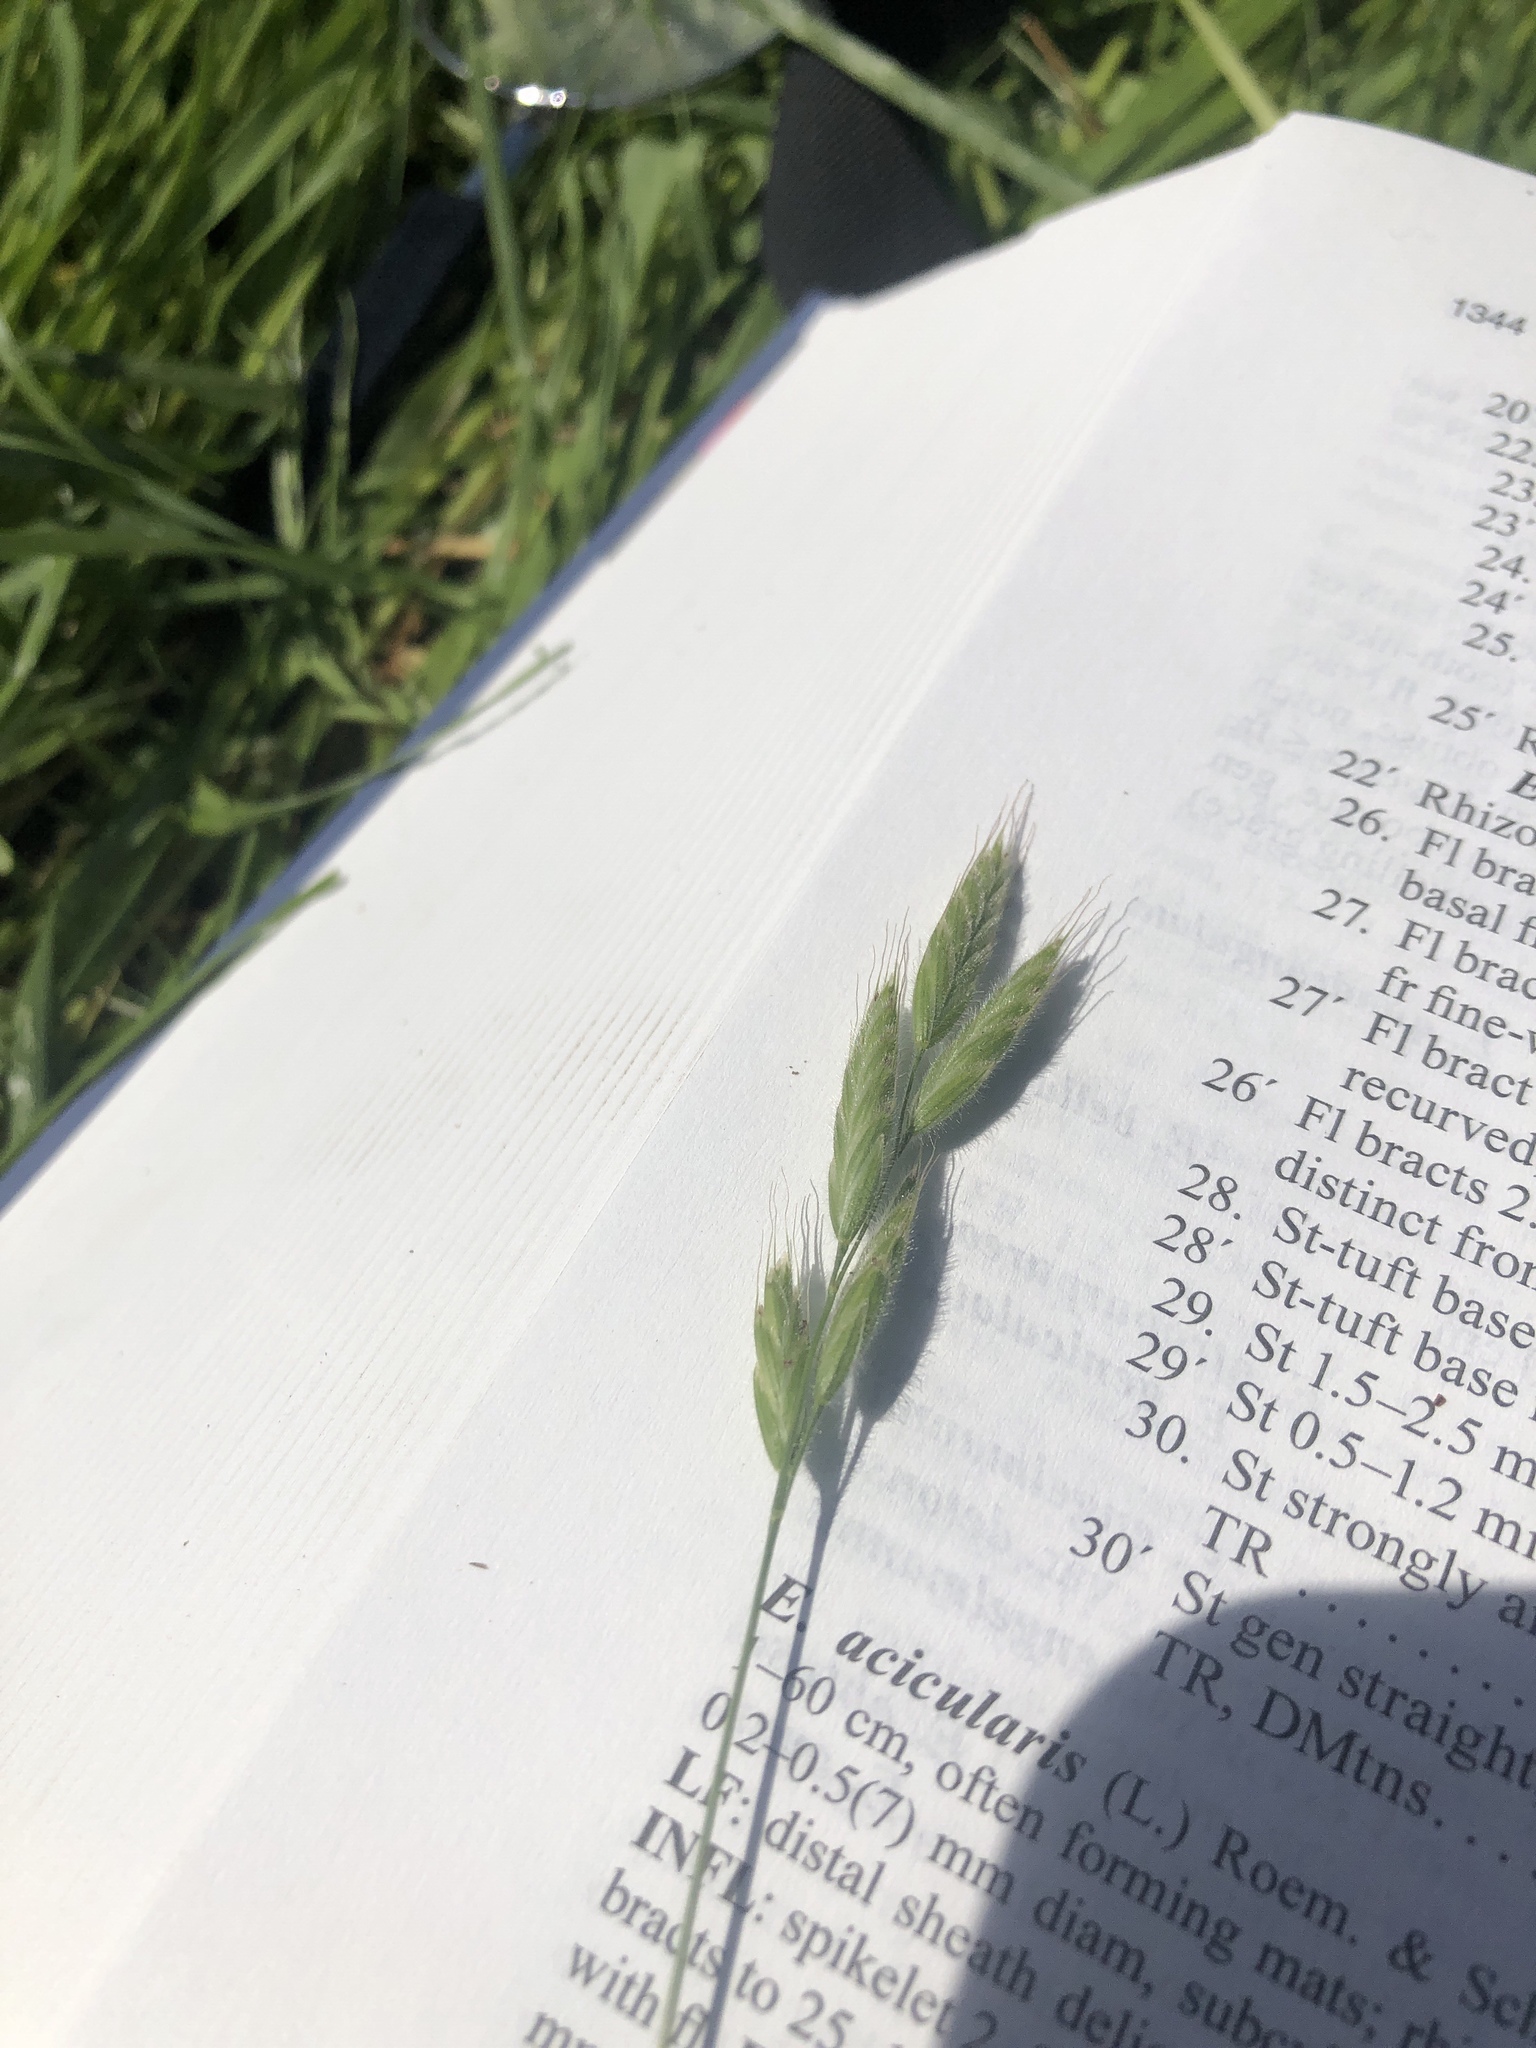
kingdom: Plantae
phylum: Tracheophyta
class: Liliopsida
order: Poales
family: Poaceae
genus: Bromus
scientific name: Bromus hordeaceus
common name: Soft brome
